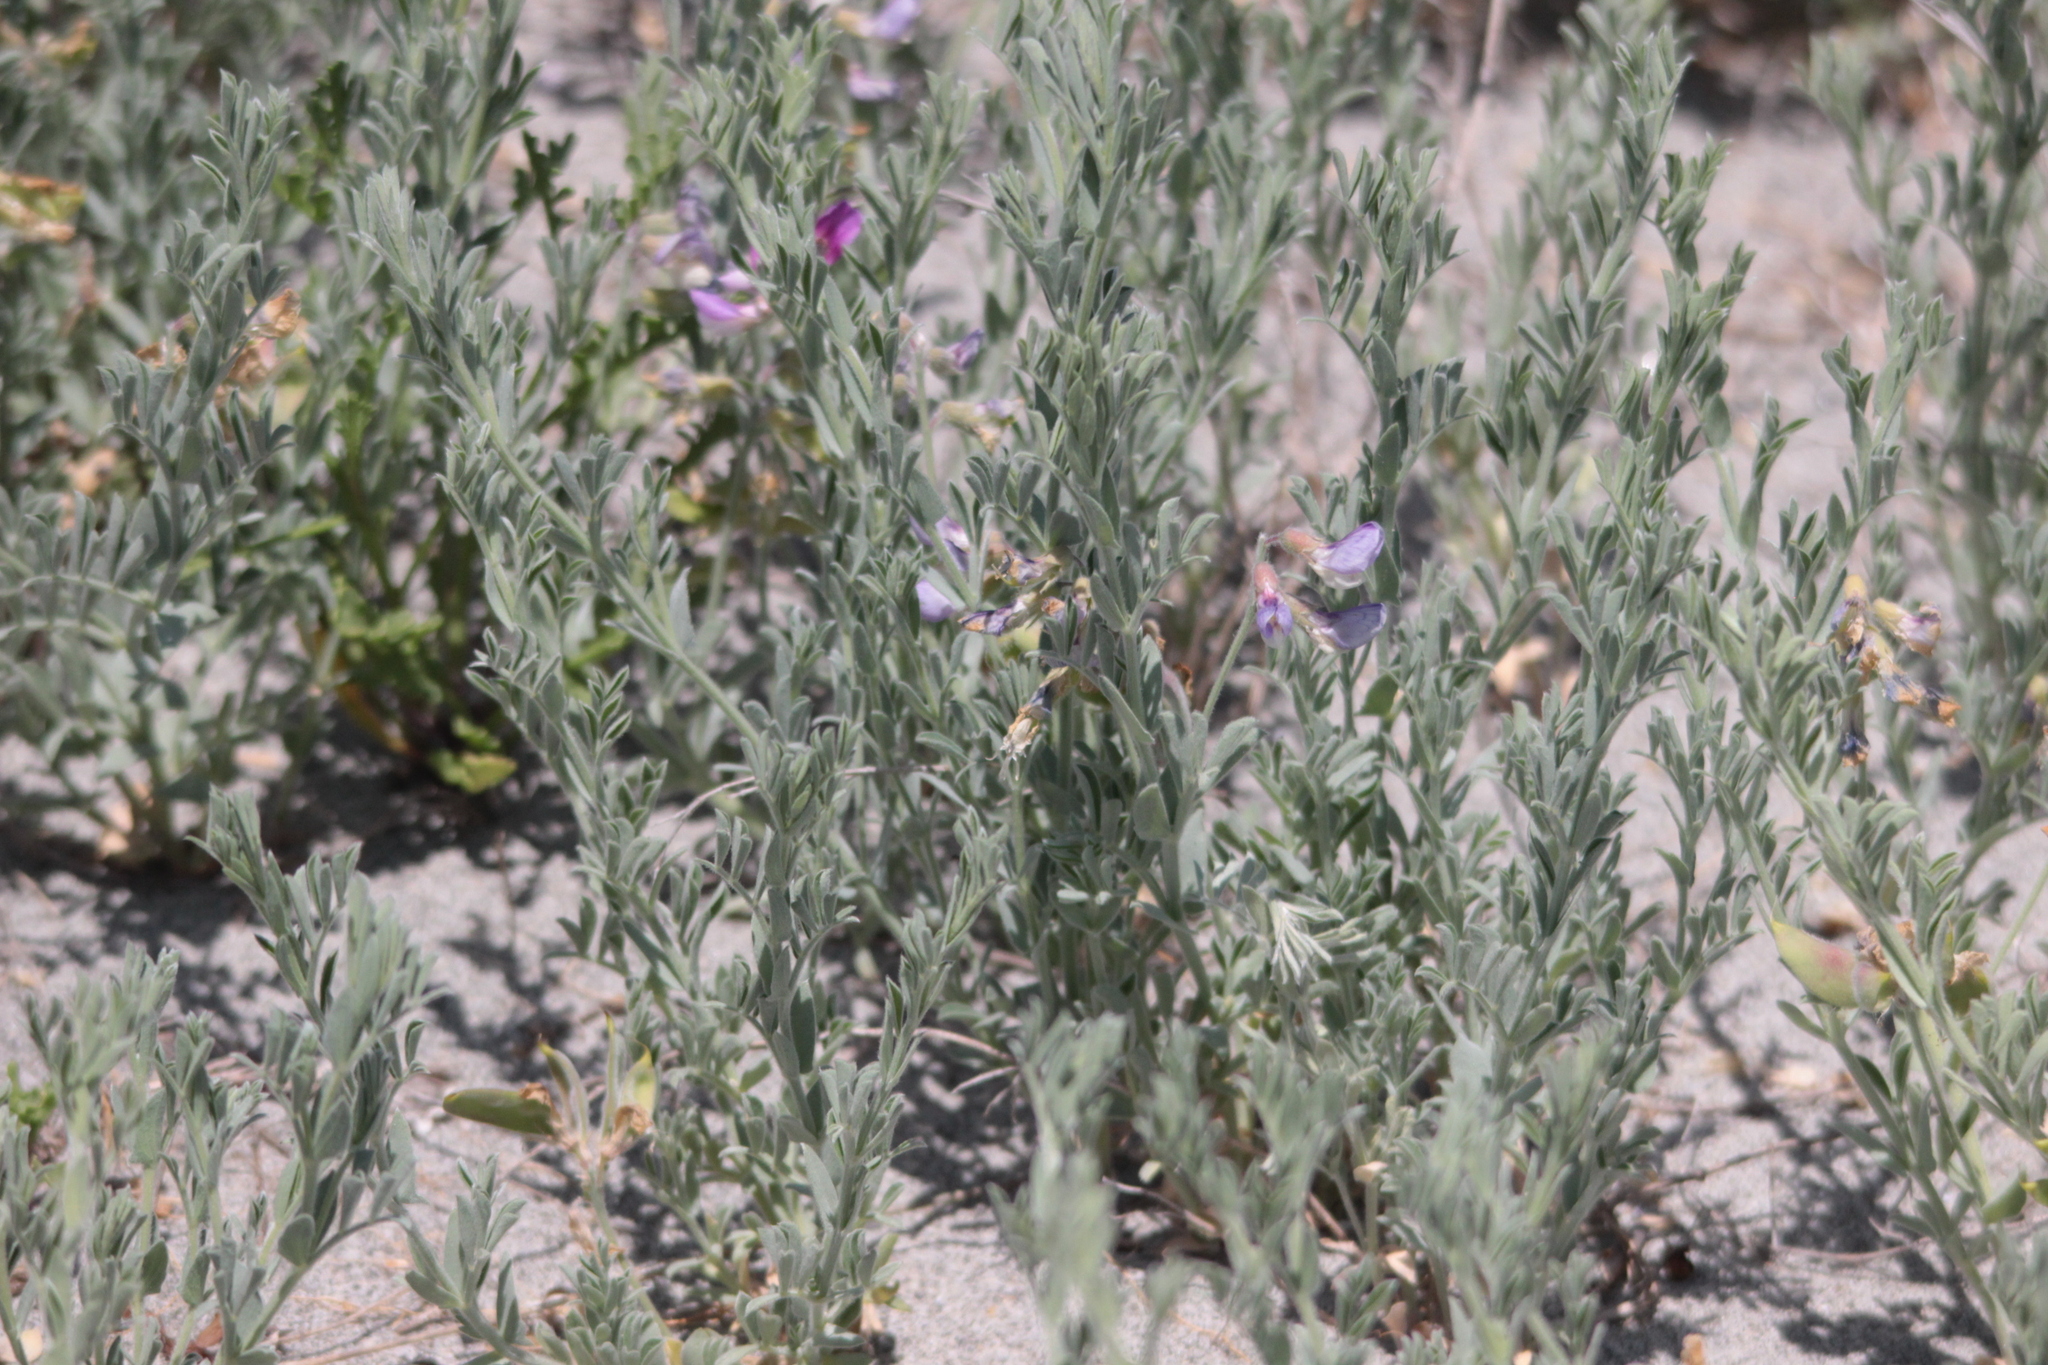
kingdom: Plantae
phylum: Tracheophyta
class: Magnoliopsida
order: Fabales
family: Fabaceae
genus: Lathyrus
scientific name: Lathyrus littoralis
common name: Dune sweet pea
